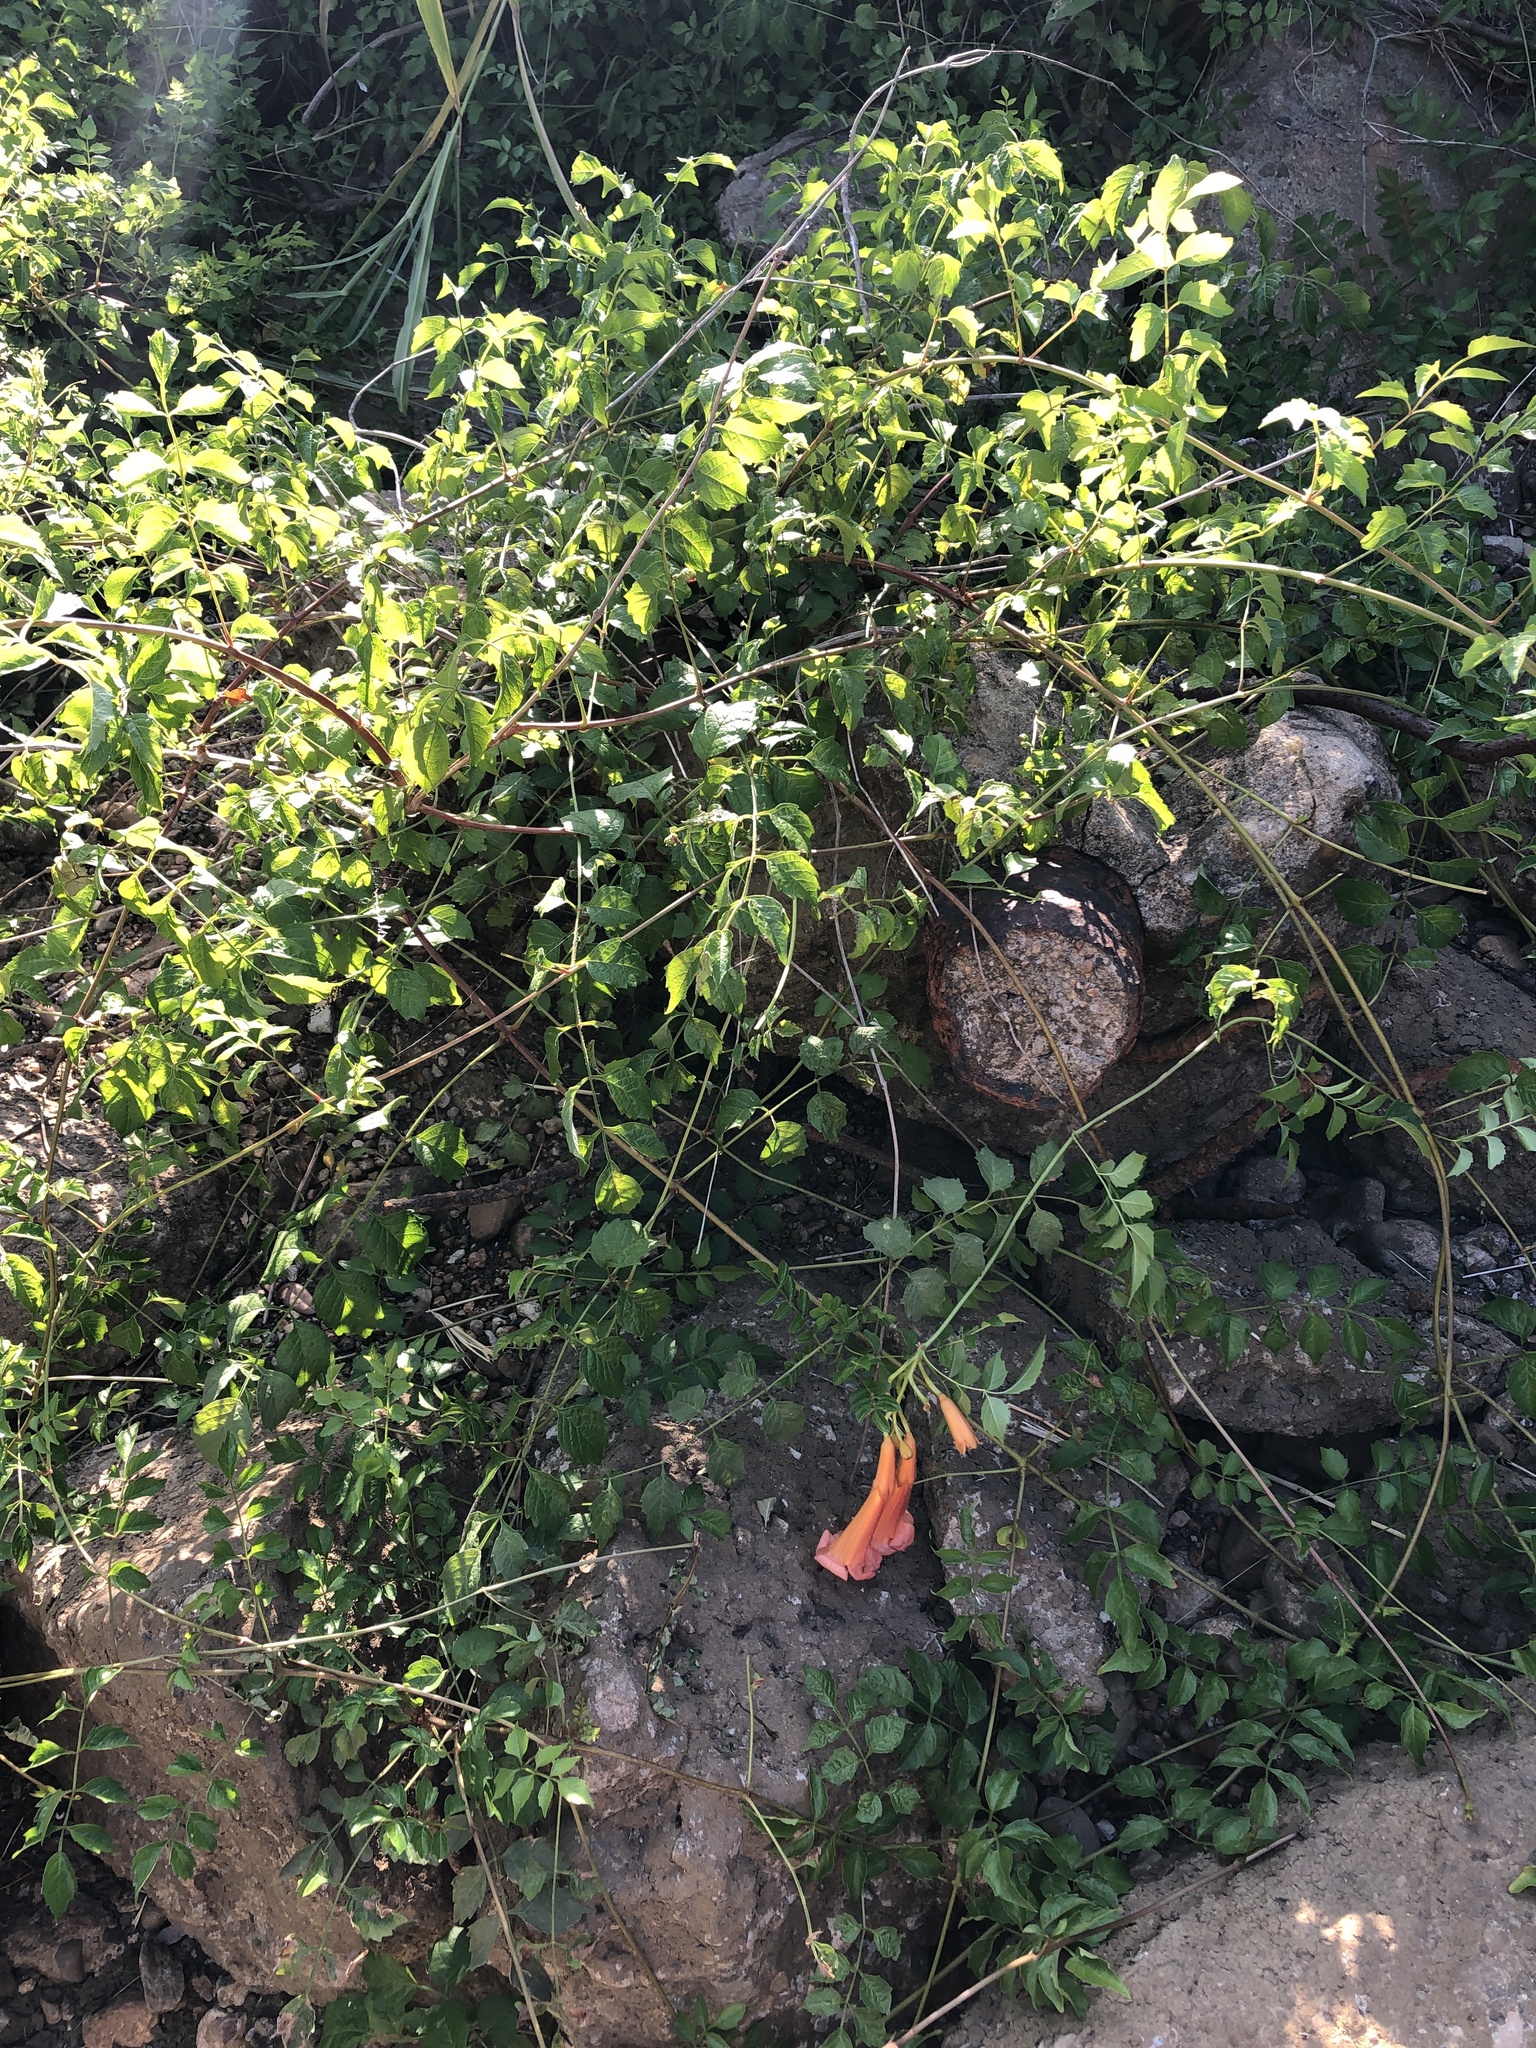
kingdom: Plantae
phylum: Tracheophyta
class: Magnoliopsida
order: Lamiales
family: Bignoniaceae
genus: Campsis
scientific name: Campsis radicans
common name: Trumpet-creeper
